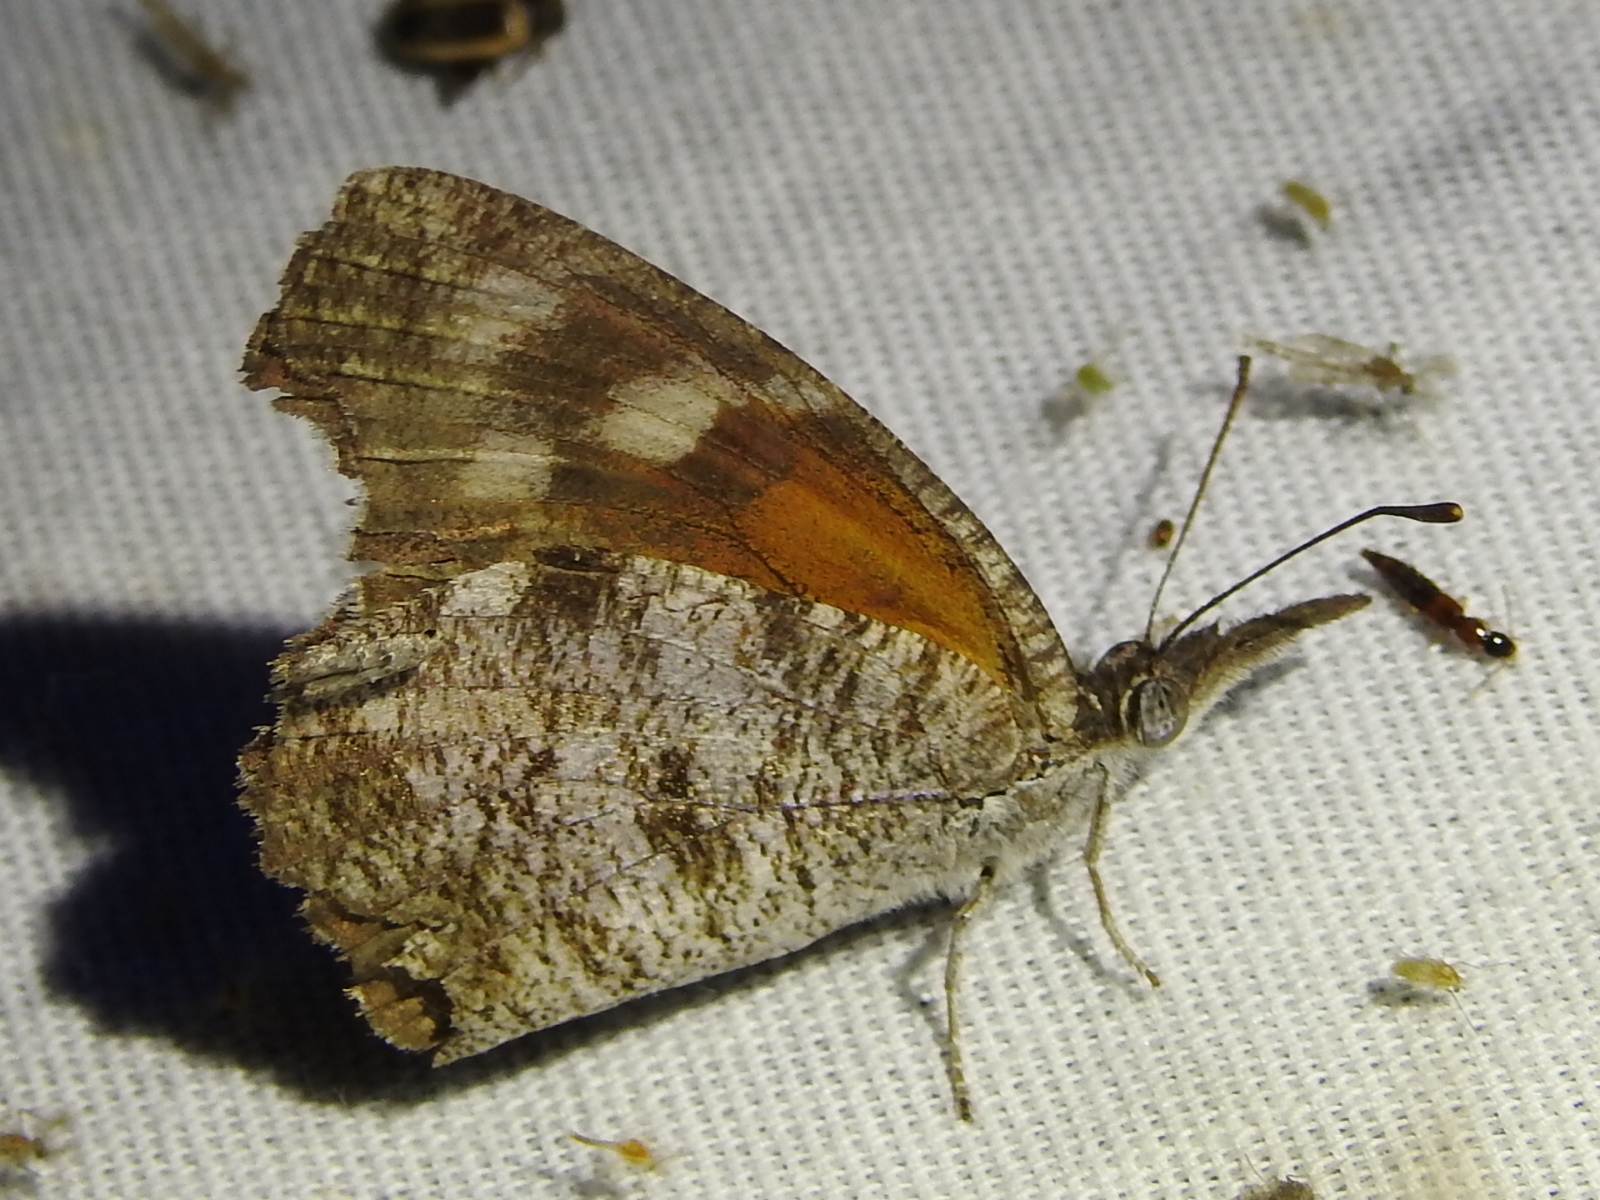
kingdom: Animalia
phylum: Arthropoda
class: Insecta
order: Lepidoptera
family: Nymphalidae
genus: Libytheana
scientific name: Libytheana carinenta
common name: American snout
